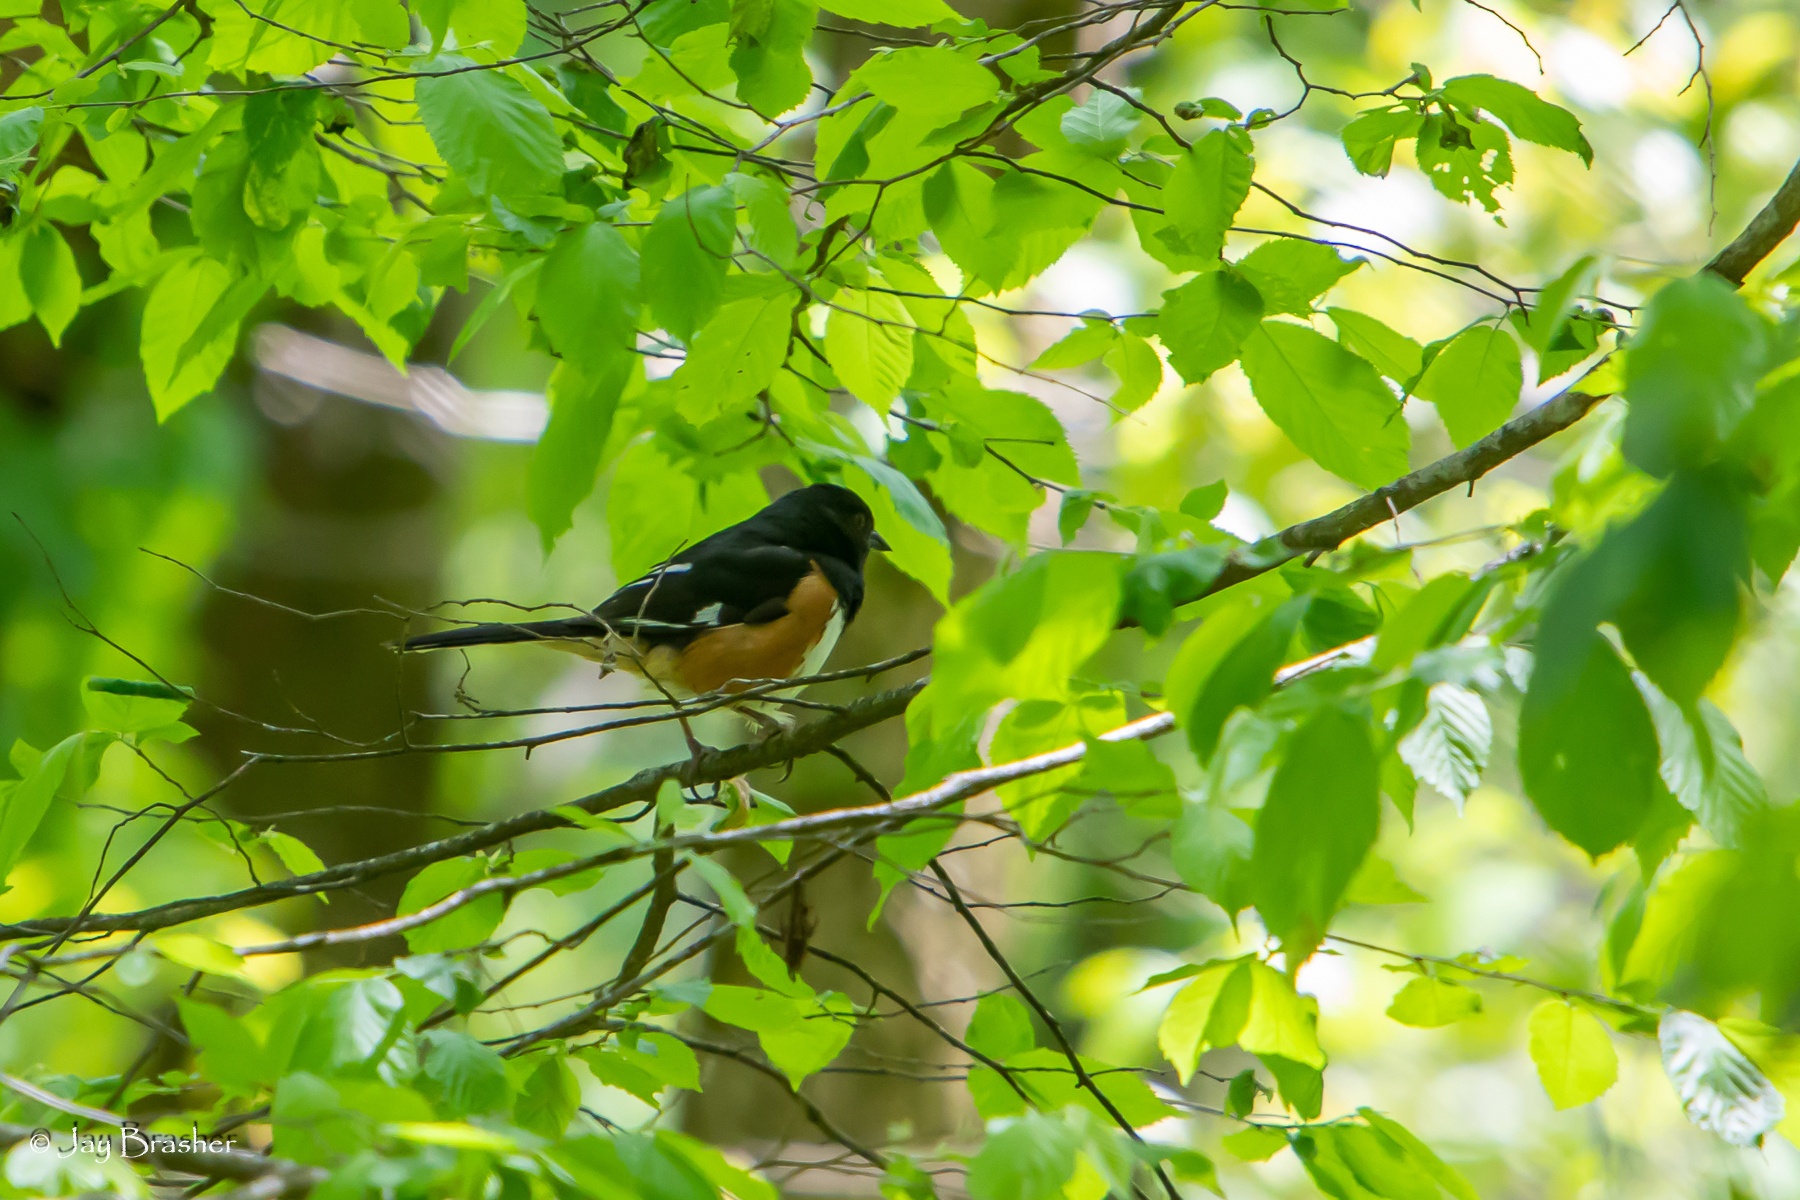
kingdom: Animalia
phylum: Chordata
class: Aves
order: Passeriformes
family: Passerellidae
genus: Pipilo
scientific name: Pipilo erythrophthalmus
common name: Eastern towhee
